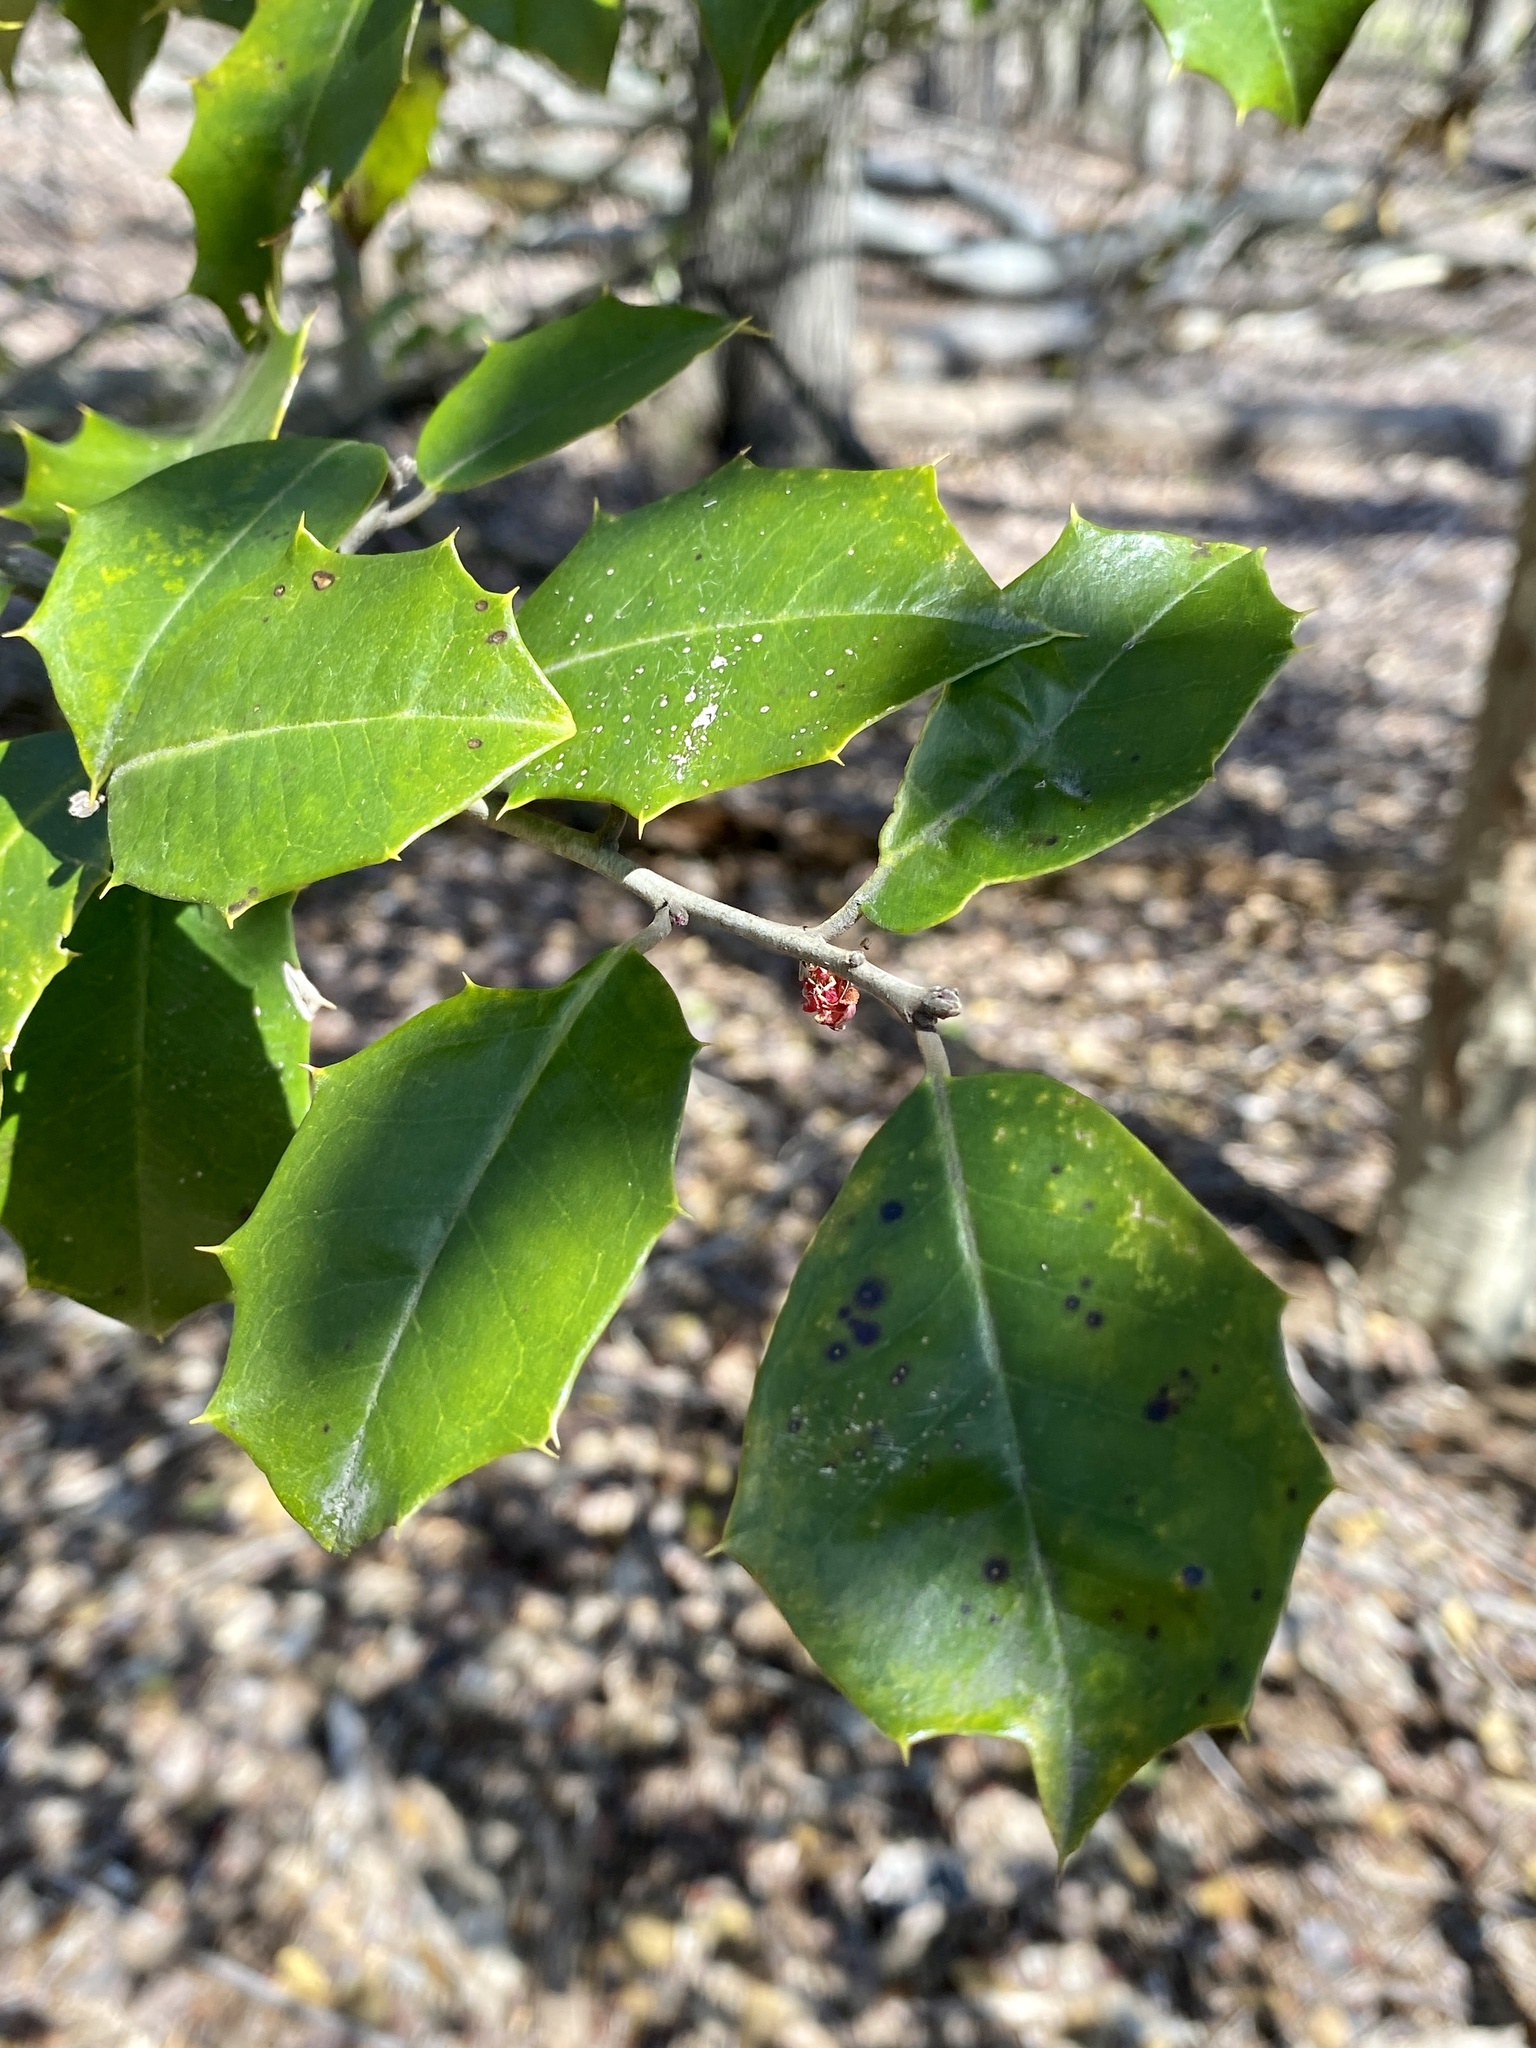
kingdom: Plantae
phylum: Tracheophyta
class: Magnoliopsida
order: Aquifoliales
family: Aquifoliaceae
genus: Ilex
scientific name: Ilex opaca
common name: American holly
